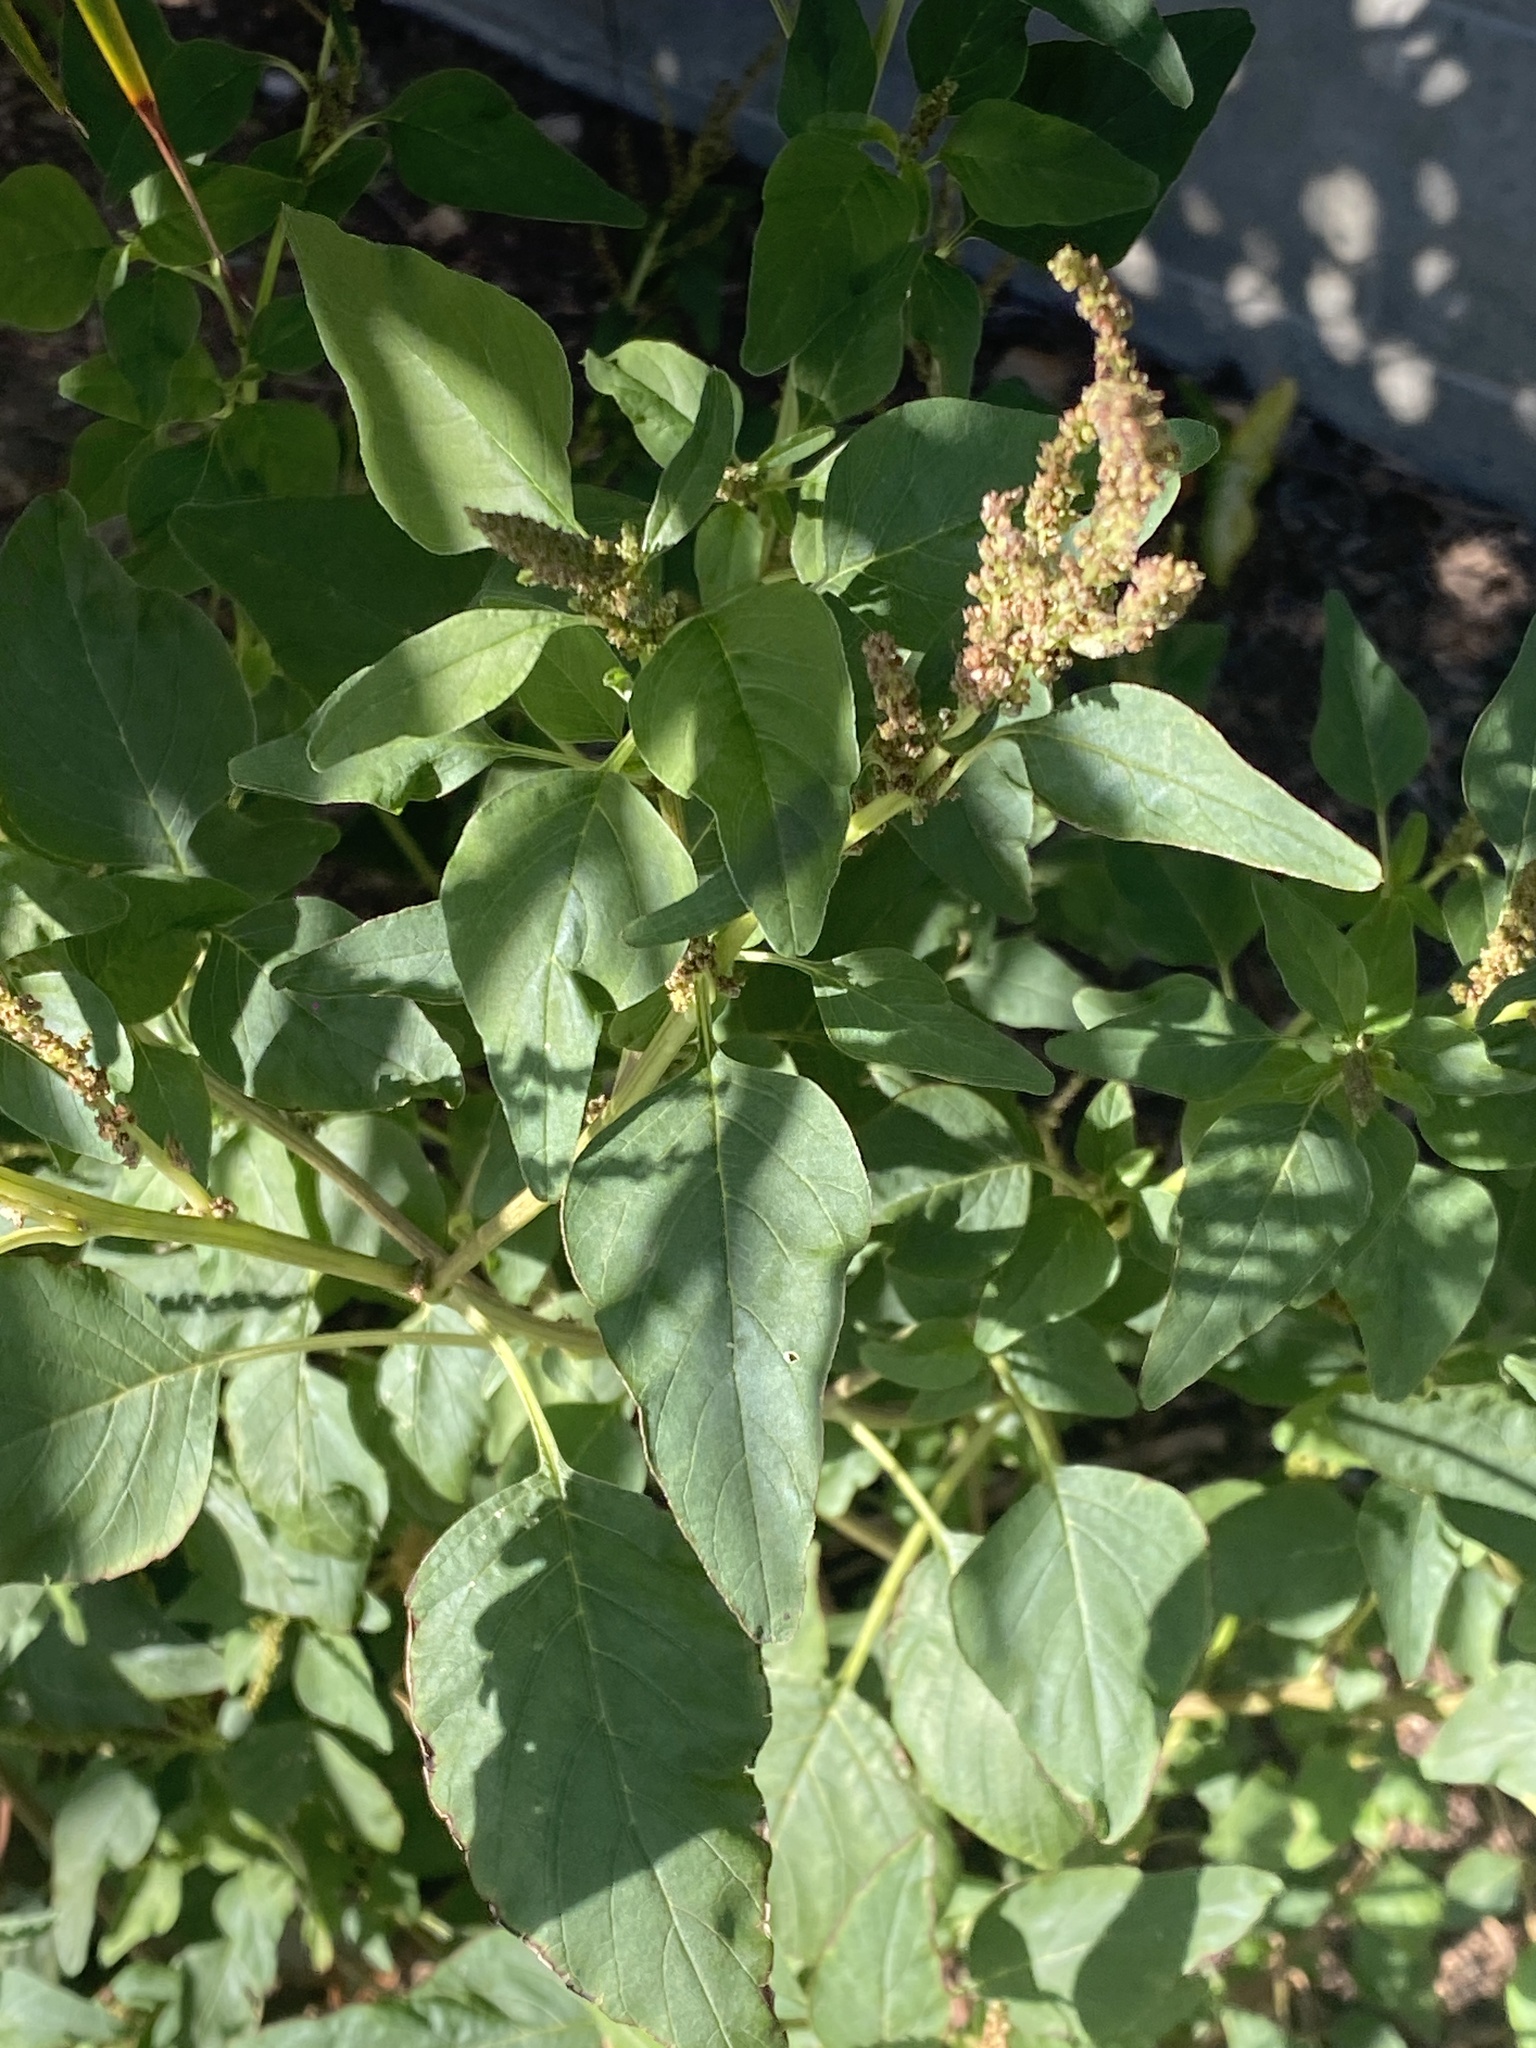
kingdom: Plantae
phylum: Tracheophyta
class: Magnoliopsida
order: Caryophyllales
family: Amaranthaceae
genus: Amaranthus
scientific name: Amaranthus viridis
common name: Slender amaranth
